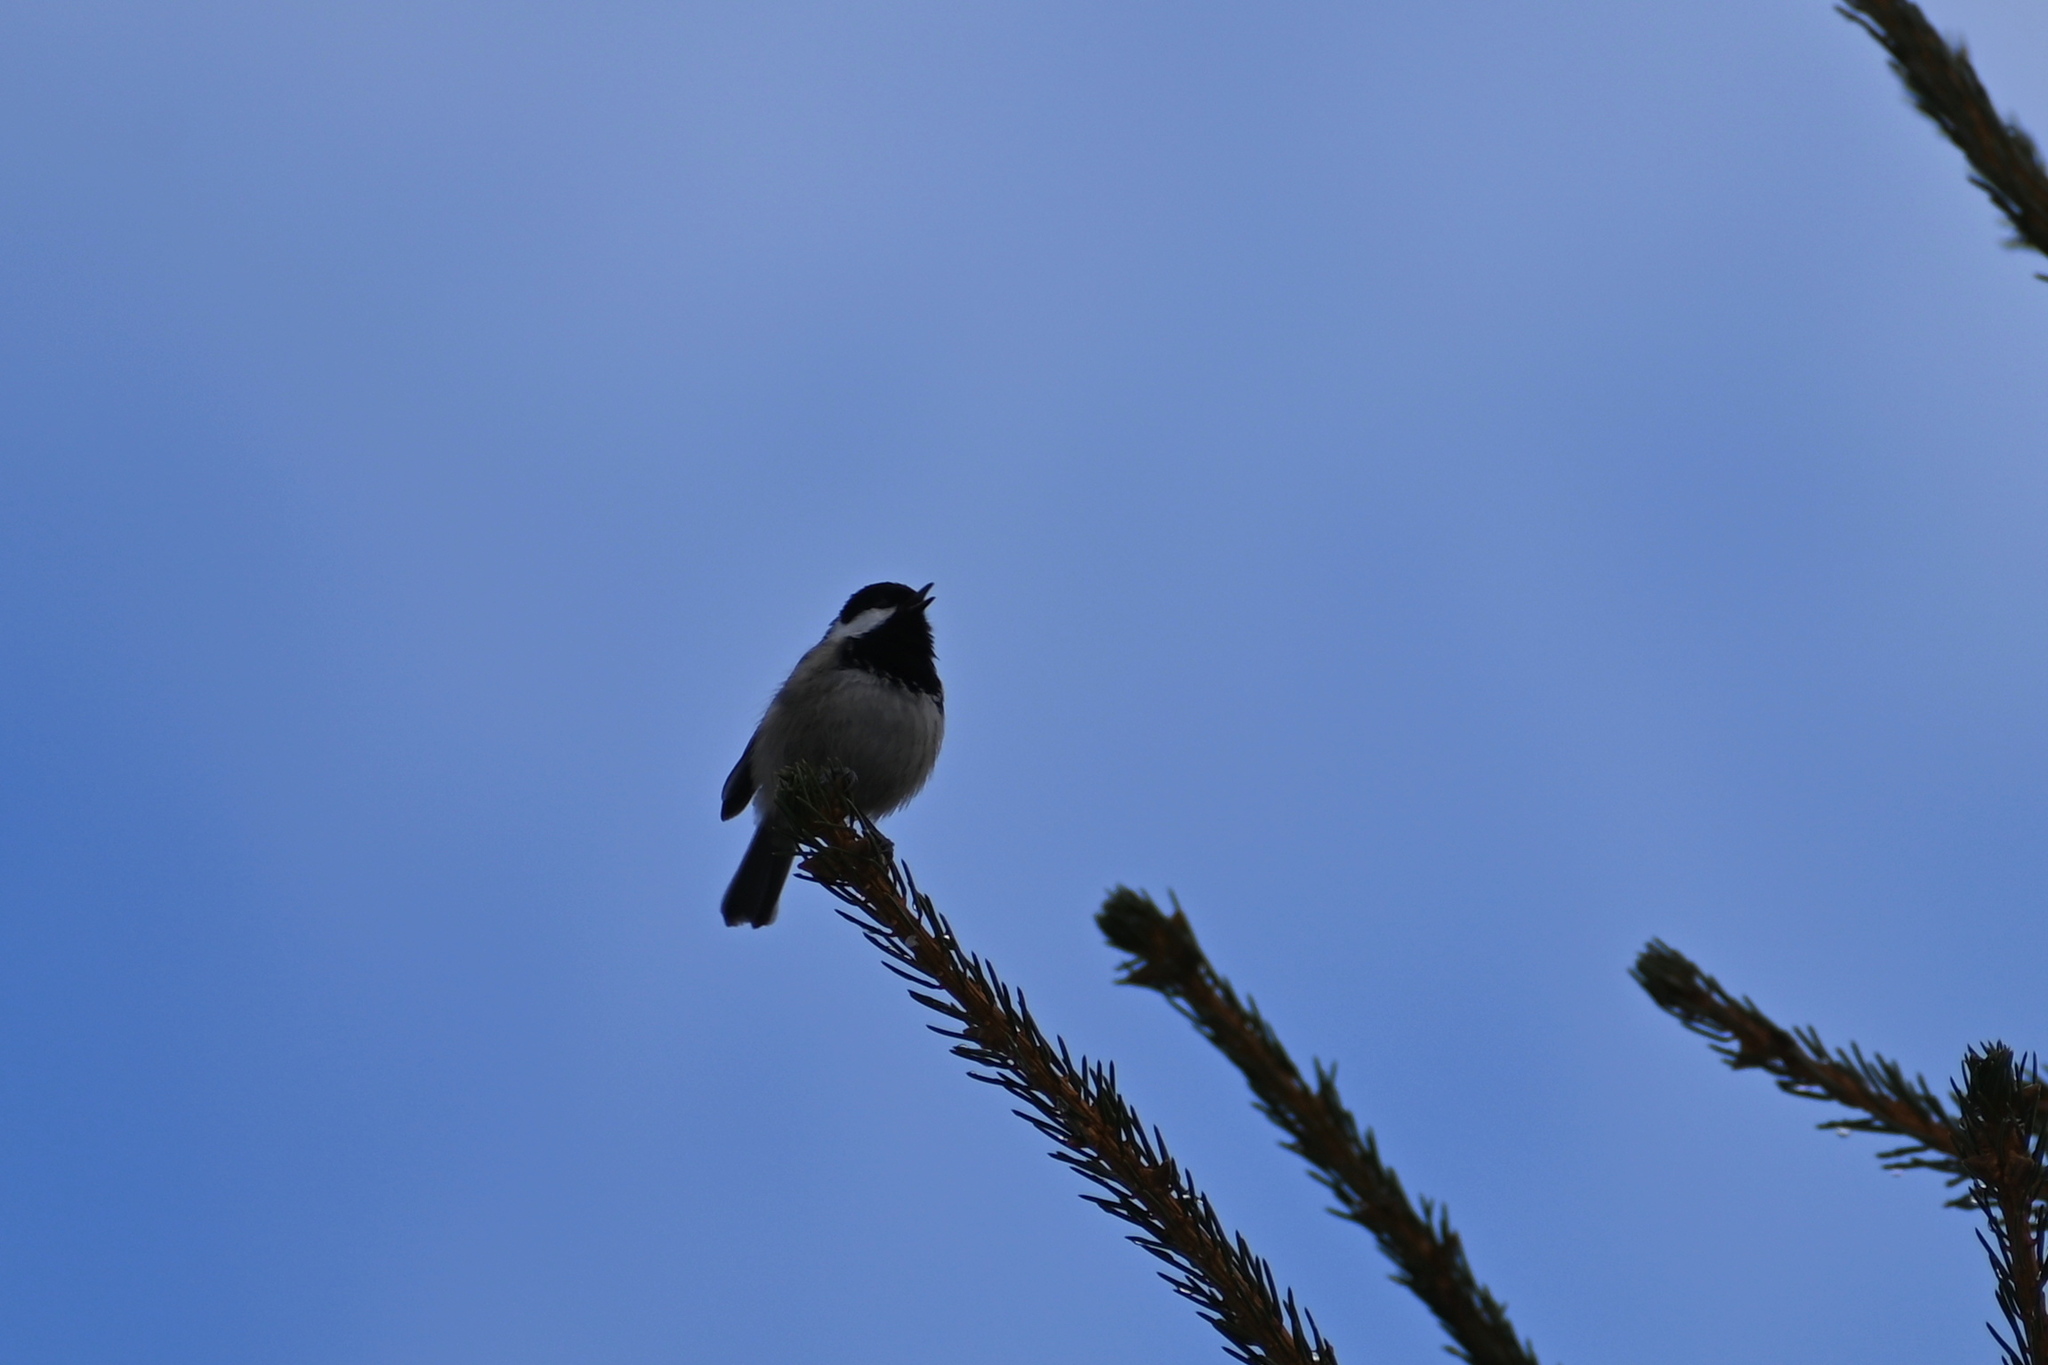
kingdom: Animalia
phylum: Chordata
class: Aves
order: Passeriformes
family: Paridae
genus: Periparus
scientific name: Periparus ater
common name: Coal tit
